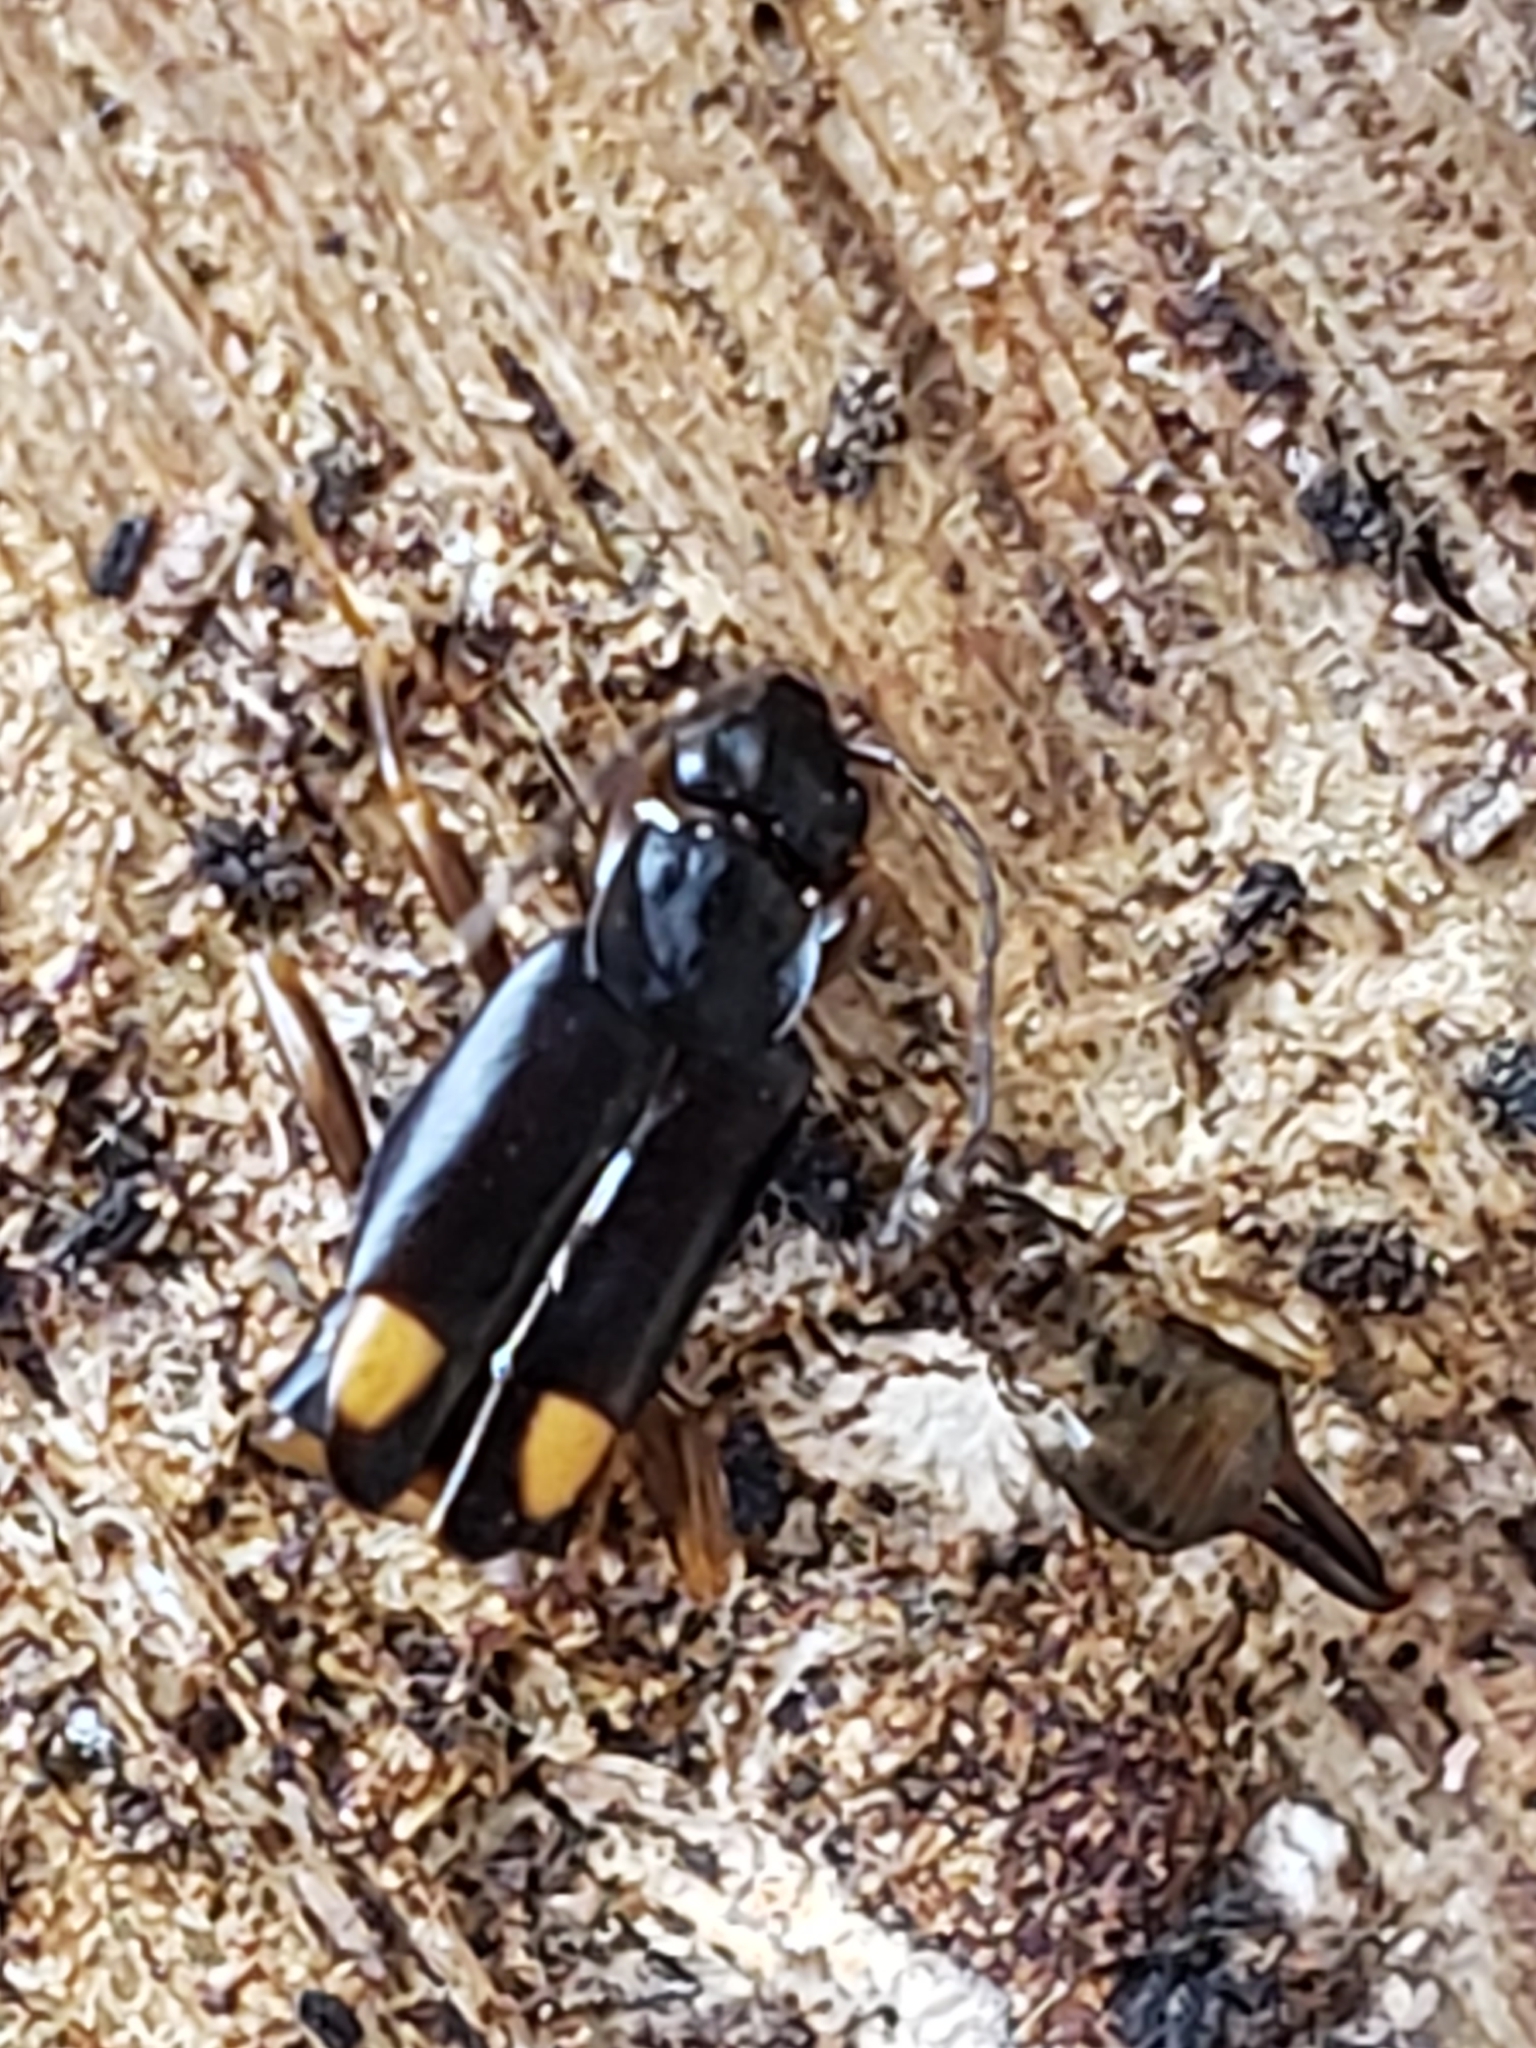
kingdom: Animalia
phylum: Arthropoda
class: Insecta
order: Dermaptera
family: Spongiphoridae
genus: Marava
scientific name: Marava arachidis
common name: Little earwig
